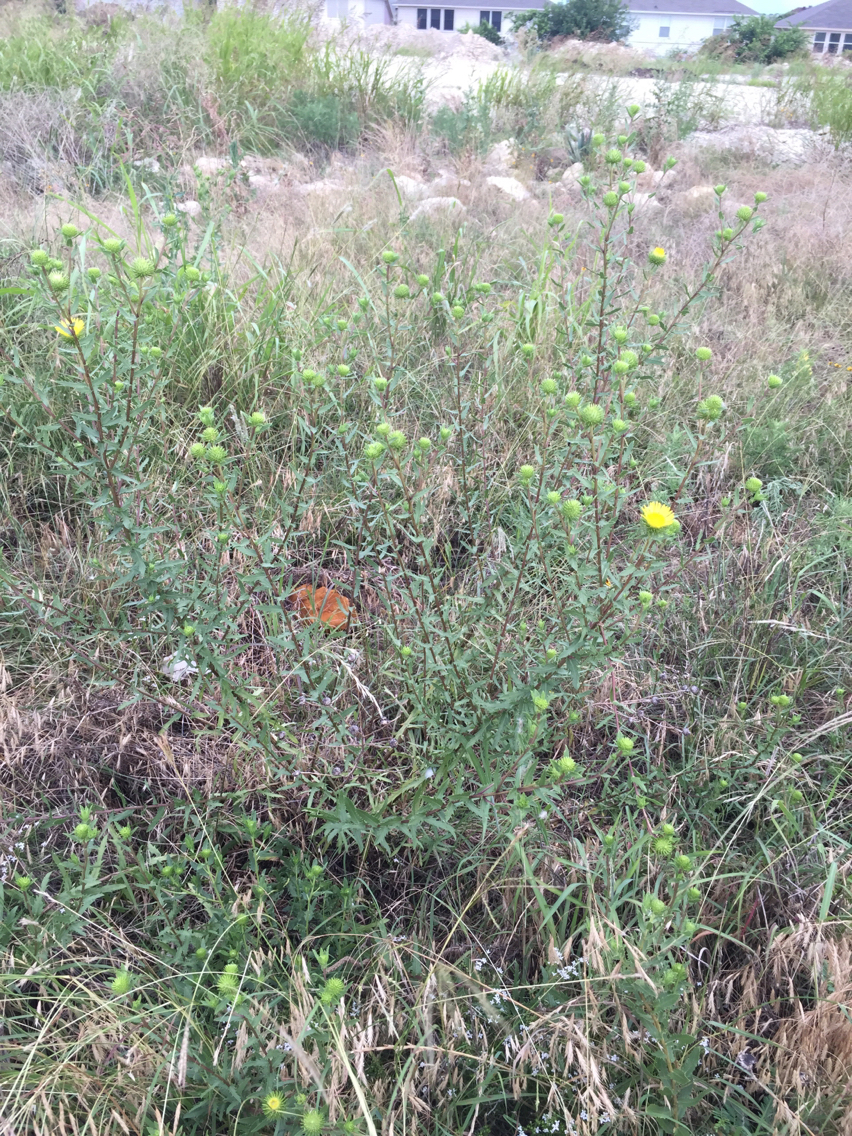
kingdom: Plantae
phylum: Tracheophyta
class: Magnoliopsida
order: Asterales
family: Asteraceae
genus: Grindelia
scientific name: Grindelia lanceolata
